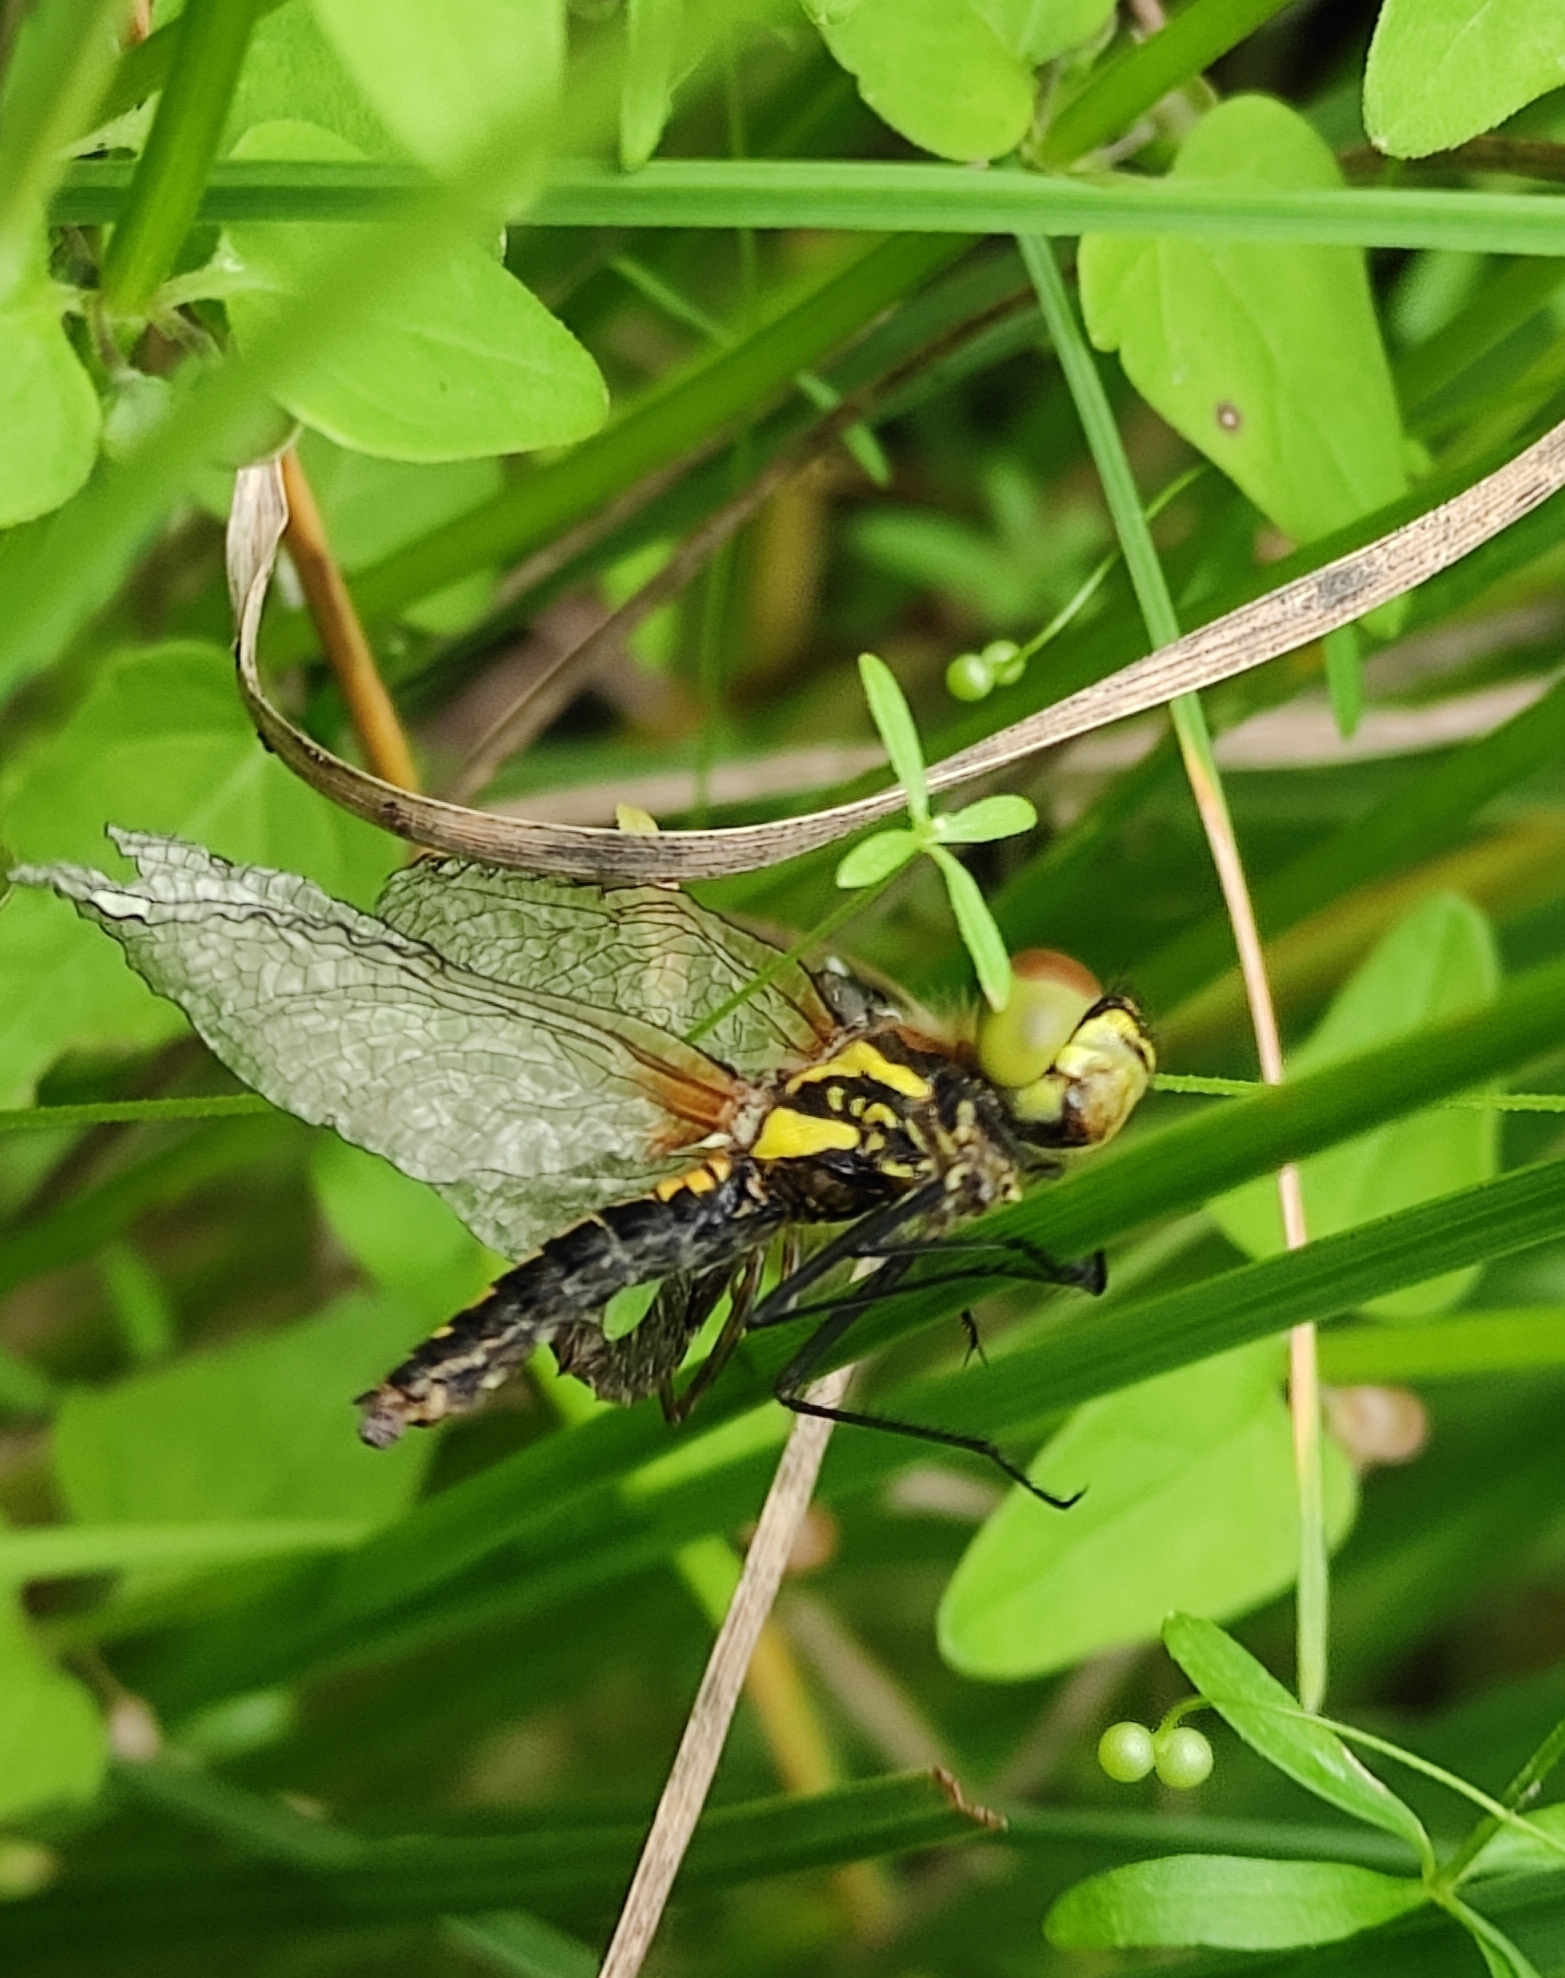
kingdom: Animalia
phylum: Arthropoda
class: Insecta
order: Odonata
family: Libellulidae
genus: Sympetrum
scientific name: Sympetrum danae
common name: Black darter
